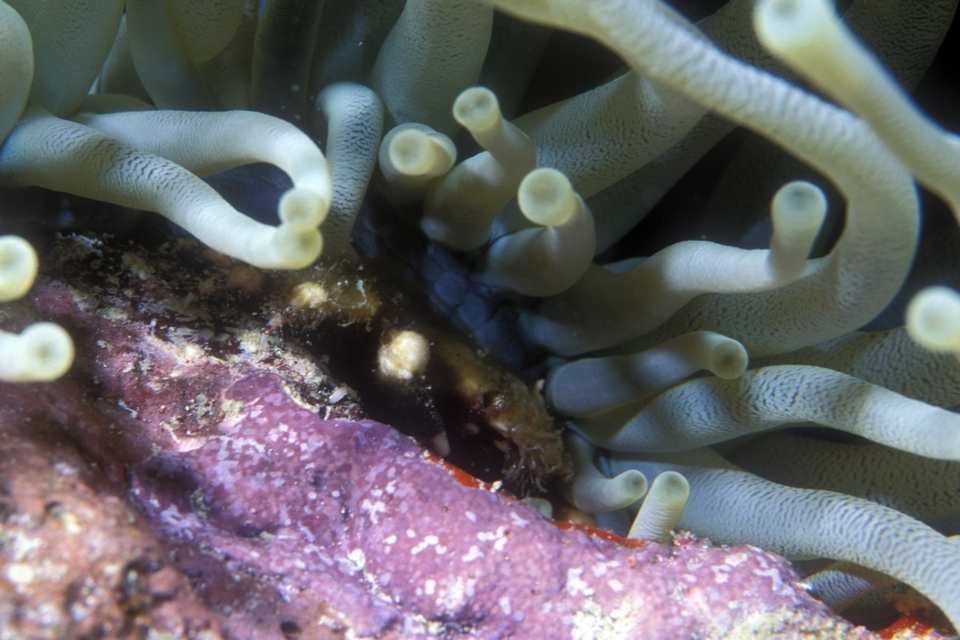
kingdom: Animalia
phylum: Arthropoda
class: Malacostraca
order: Decapoda
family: Mithracidae
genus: Mithraculus
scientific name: Mithraculus cinctimanus
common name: Banded clinging crab
